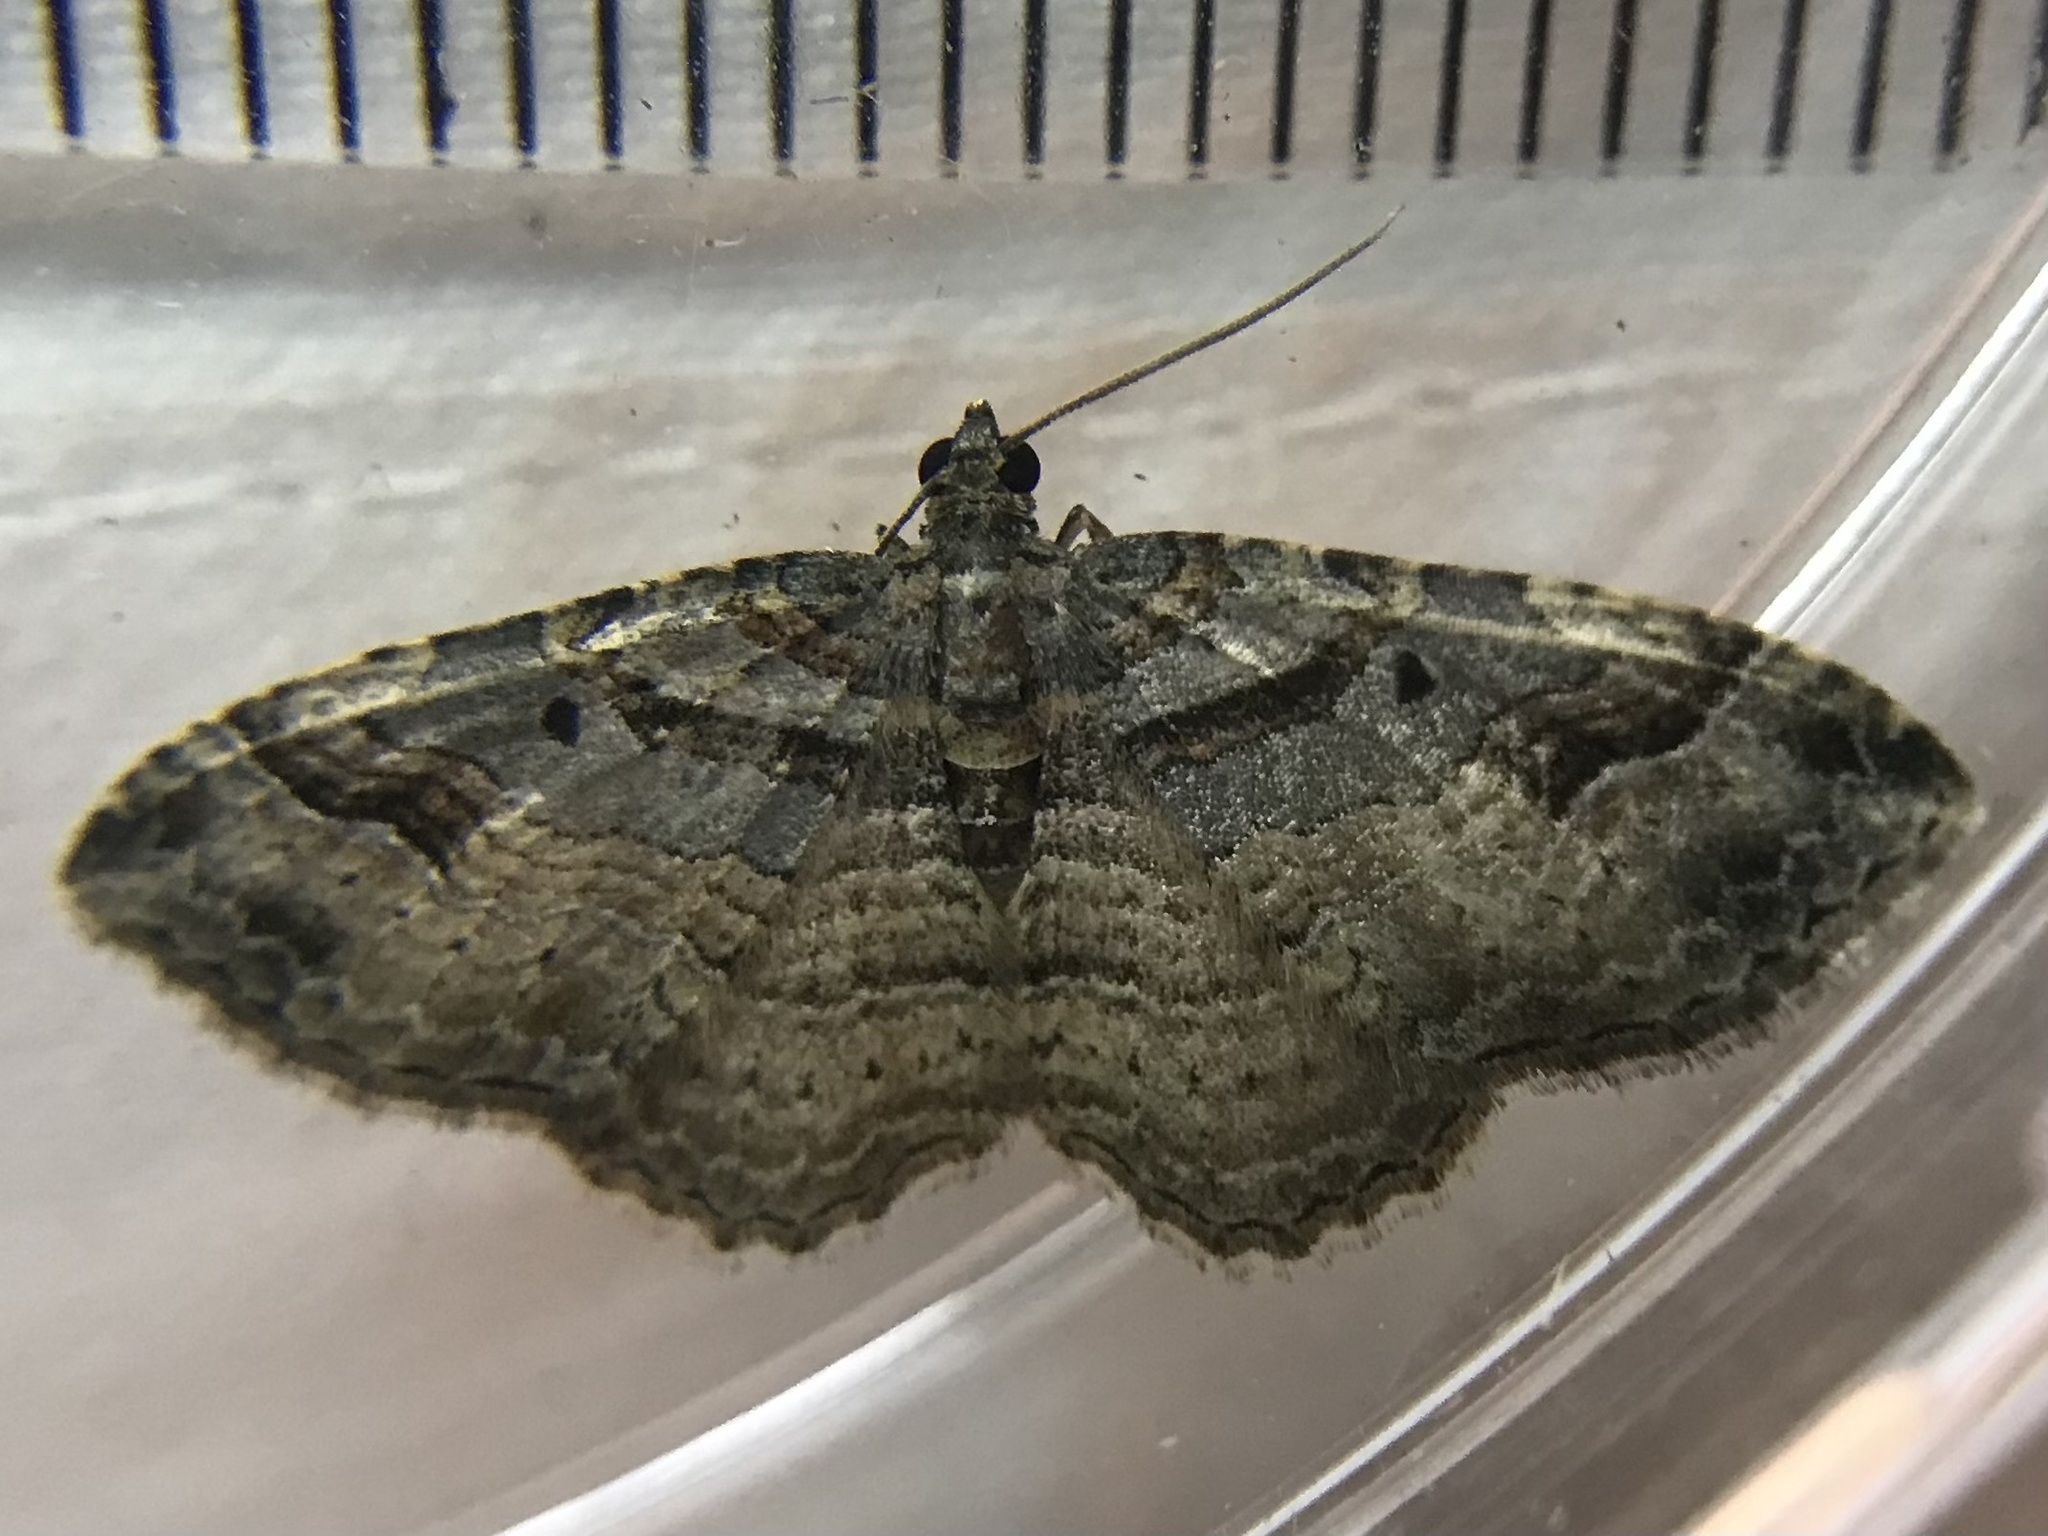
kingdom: Animalia
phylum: Arthropoda
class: Insecta
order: Lepidoptera
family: Geometridae
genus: Costaconvexa
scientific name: Costaconvexa centrostrigaria
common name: Bent-line carpet
